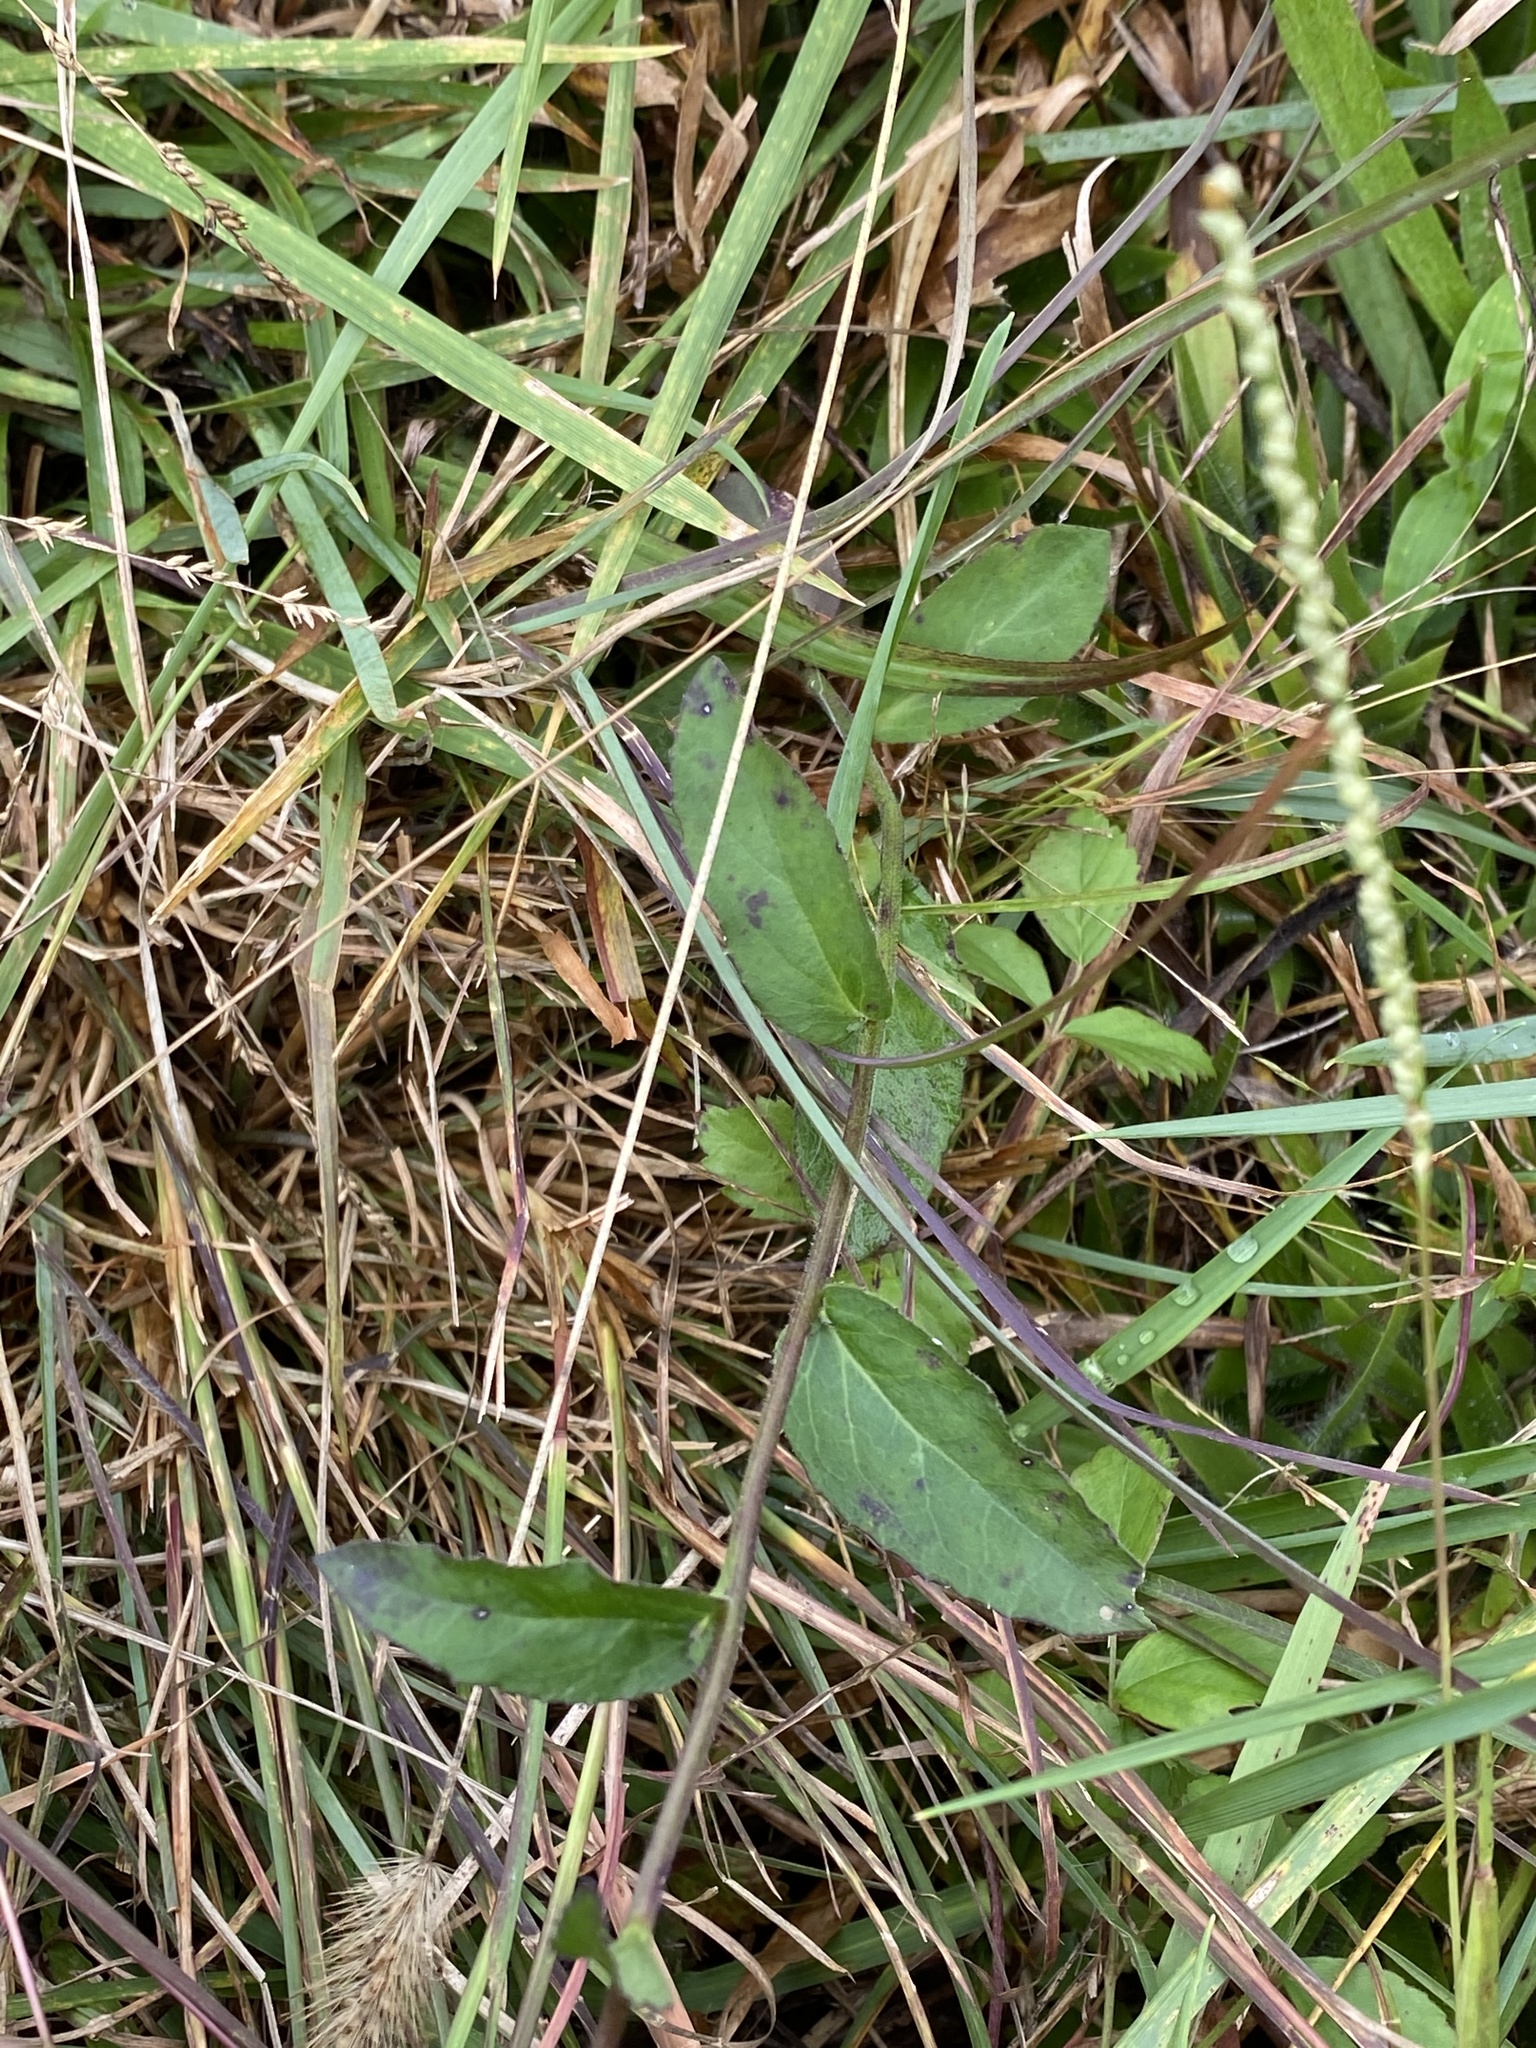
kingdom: Plantae
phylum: Tracheophyta
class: Magnoliopsida
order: Asterales
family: Campanulaceae
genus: Lobelia
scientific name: Lobelia puberula
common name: Purple dewdrop
